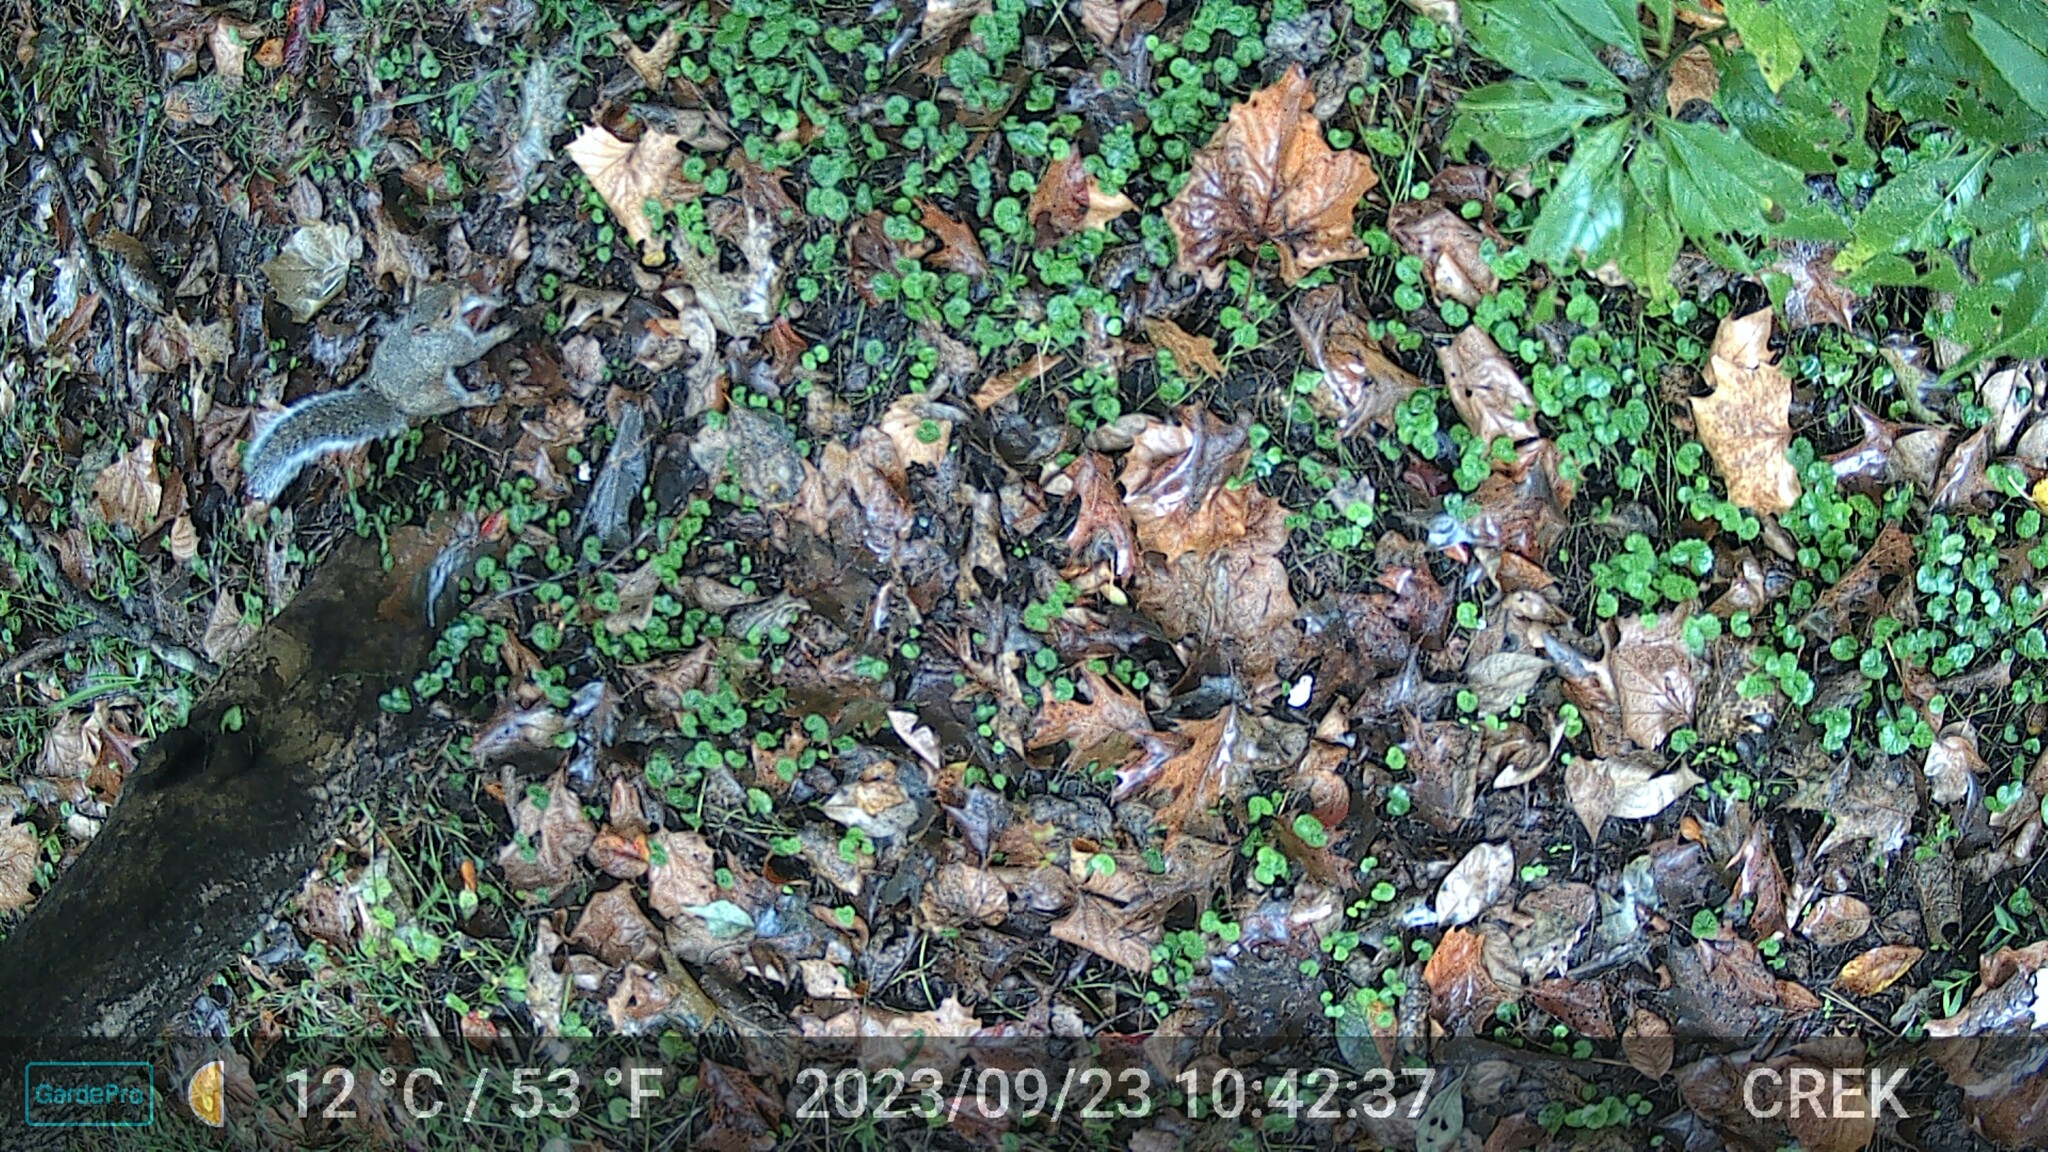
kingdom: Animalia
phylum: Chordata
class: Mammalia
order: Rodentia
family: Sciuridae
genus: Sciurus
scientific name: Sciurus carolinensis
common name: Eastern gray squirrel
